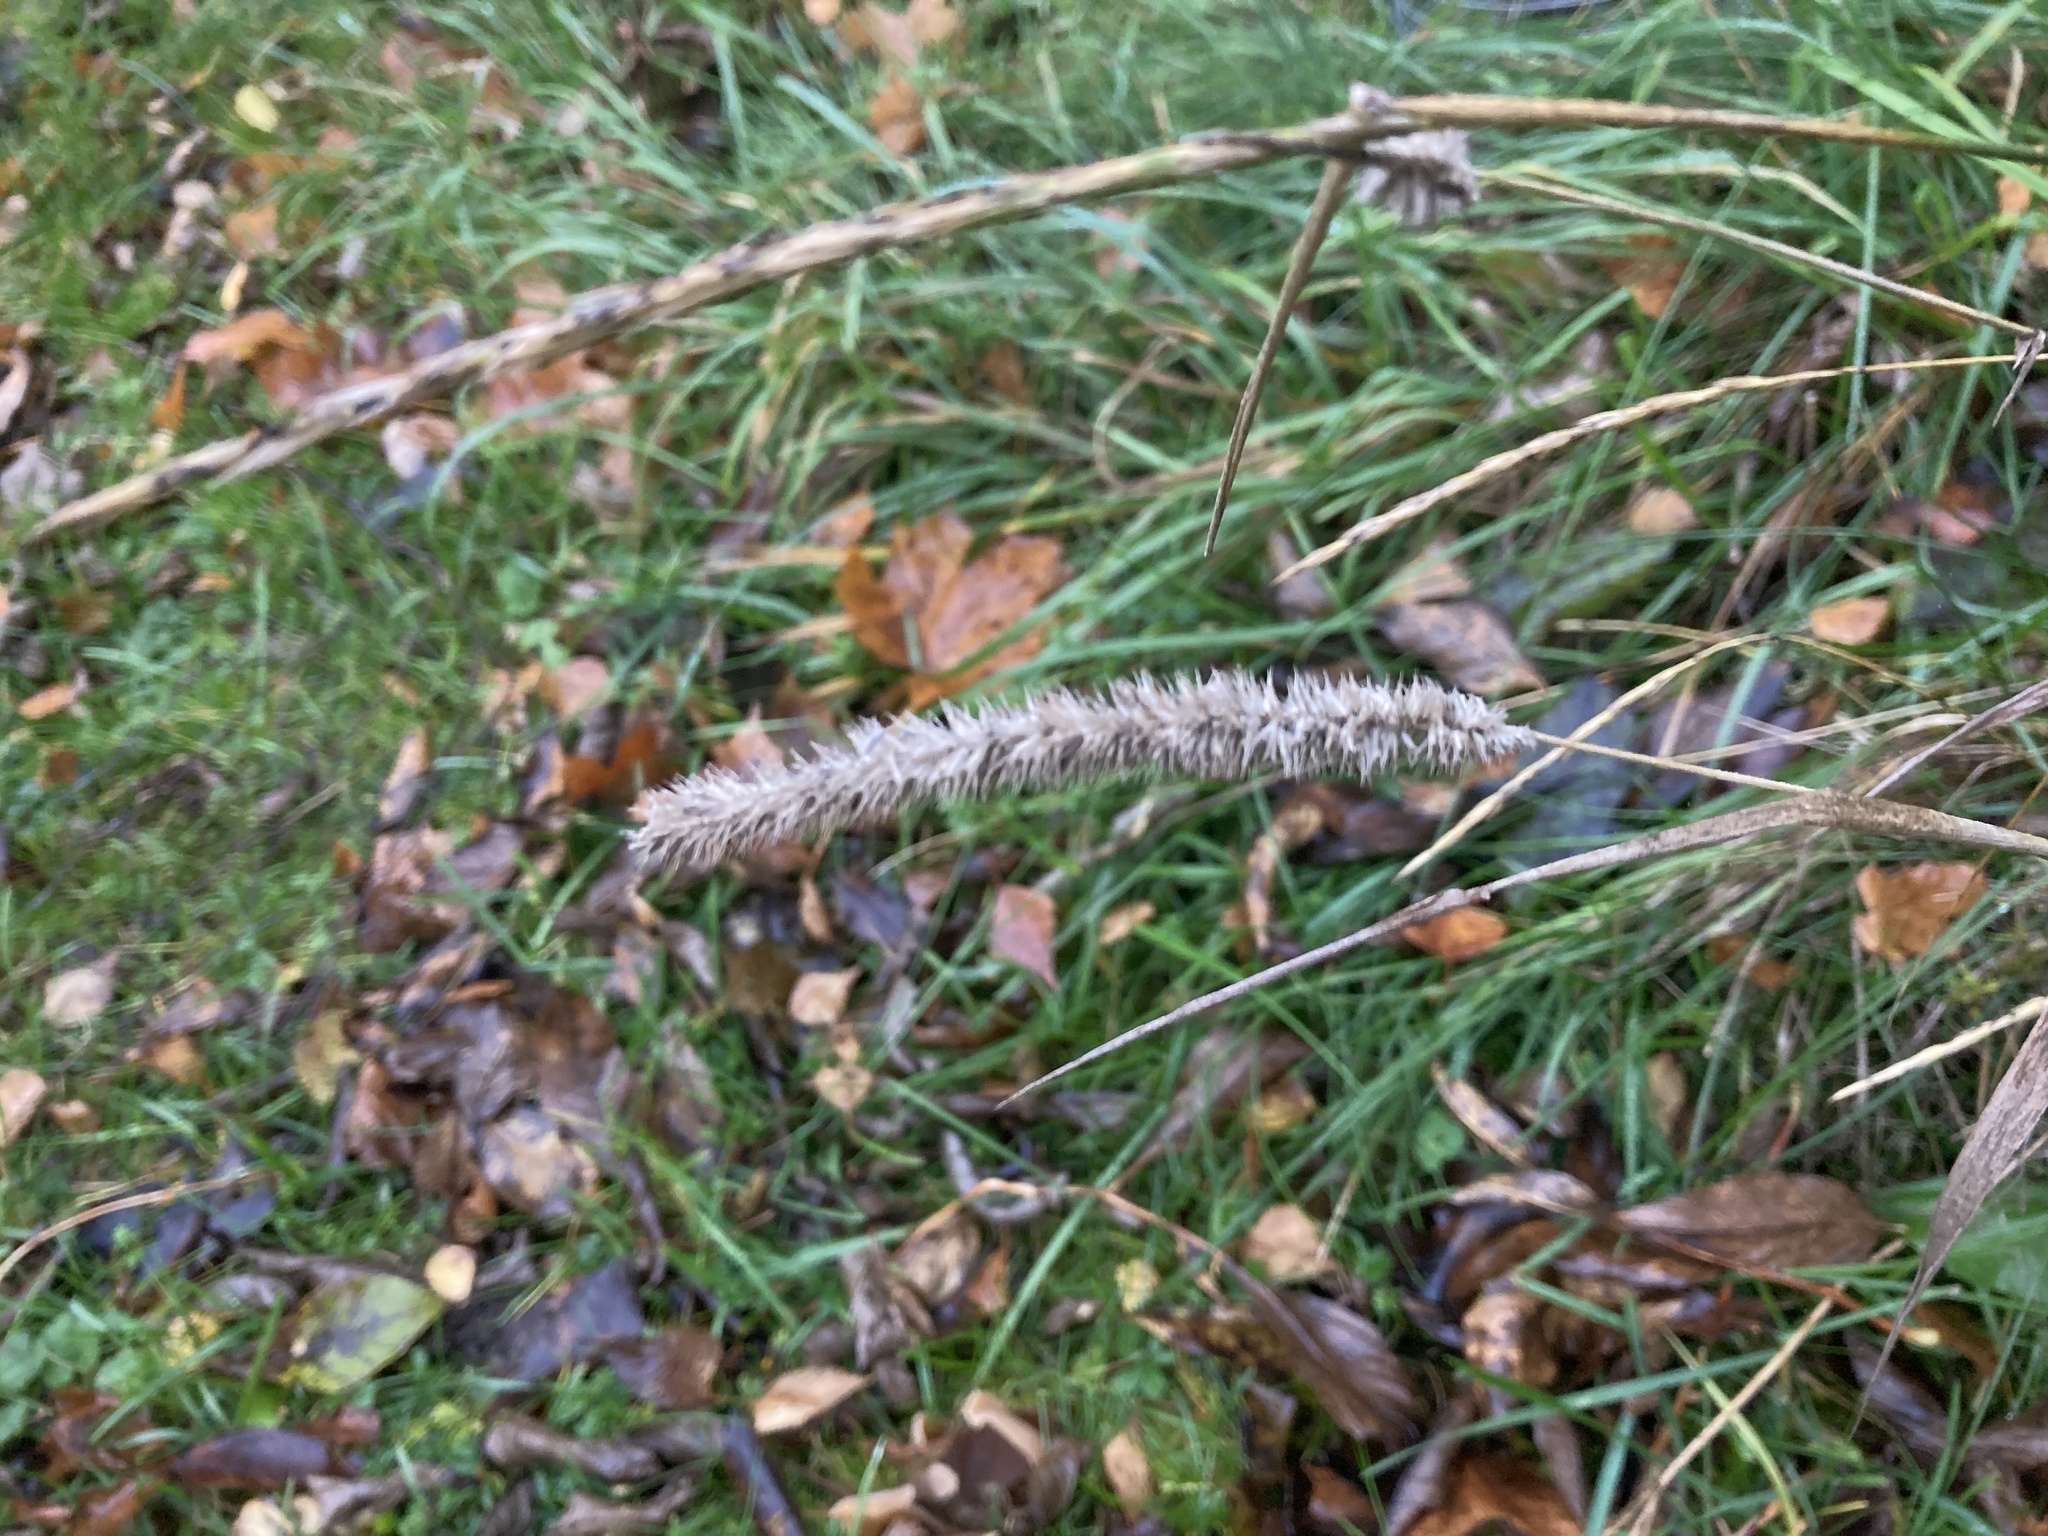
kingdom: Plantae
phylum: Tracheophyta
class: Liliopsida
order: Poales
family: Poaceae
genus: Phleum
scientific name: Phleum pratense
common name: Timothy grass
